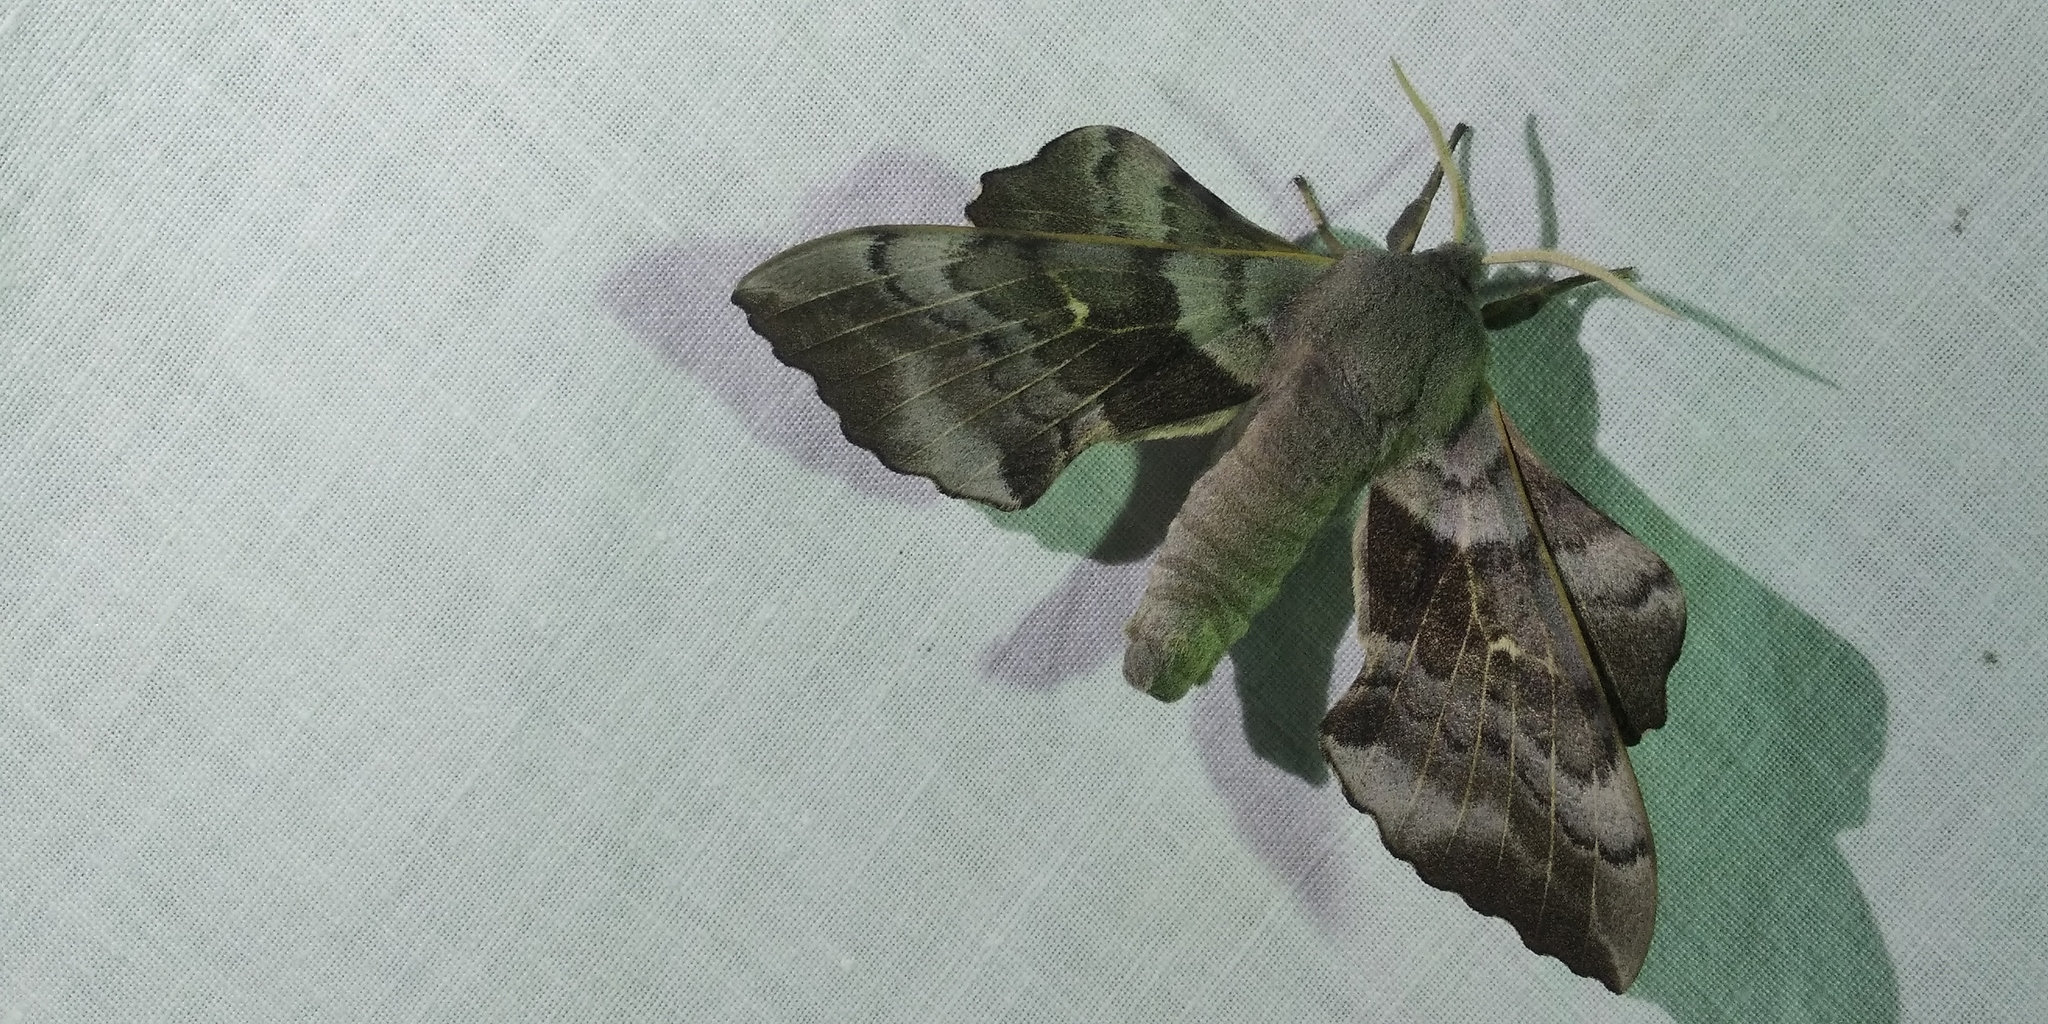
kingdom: Animalia
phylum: Arthropoda
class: Insecta
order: Lepidoptera
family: Sphingidae
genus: Laothoe
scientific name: Laothoe populi
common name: Poplar hawk-moth
